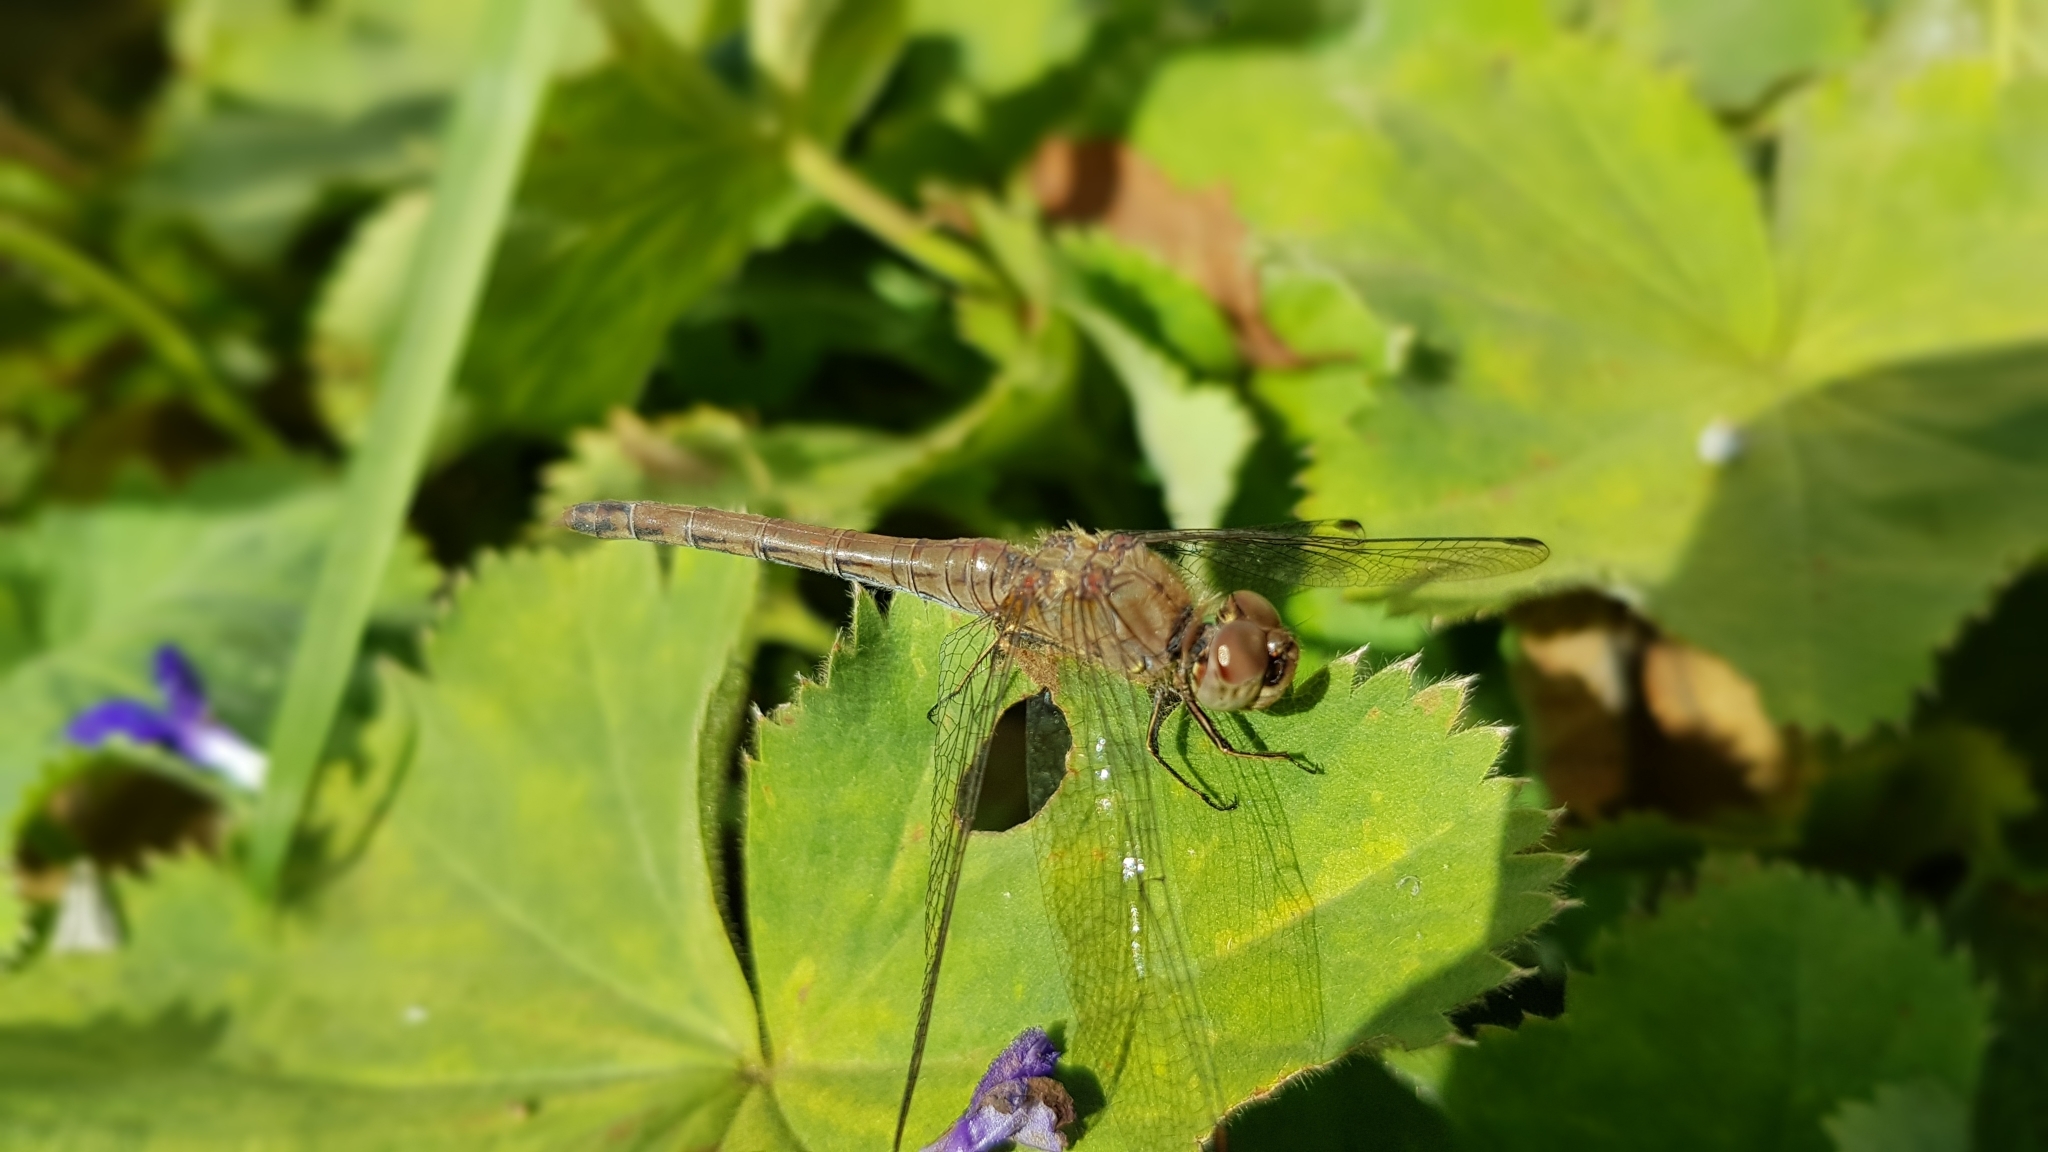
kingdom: Animalia
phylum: Arthropoda
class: Insecta
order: Odonata
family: Libellulidae
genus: Sympetrum
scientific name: Sympetrum striolatum
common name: Common darter
